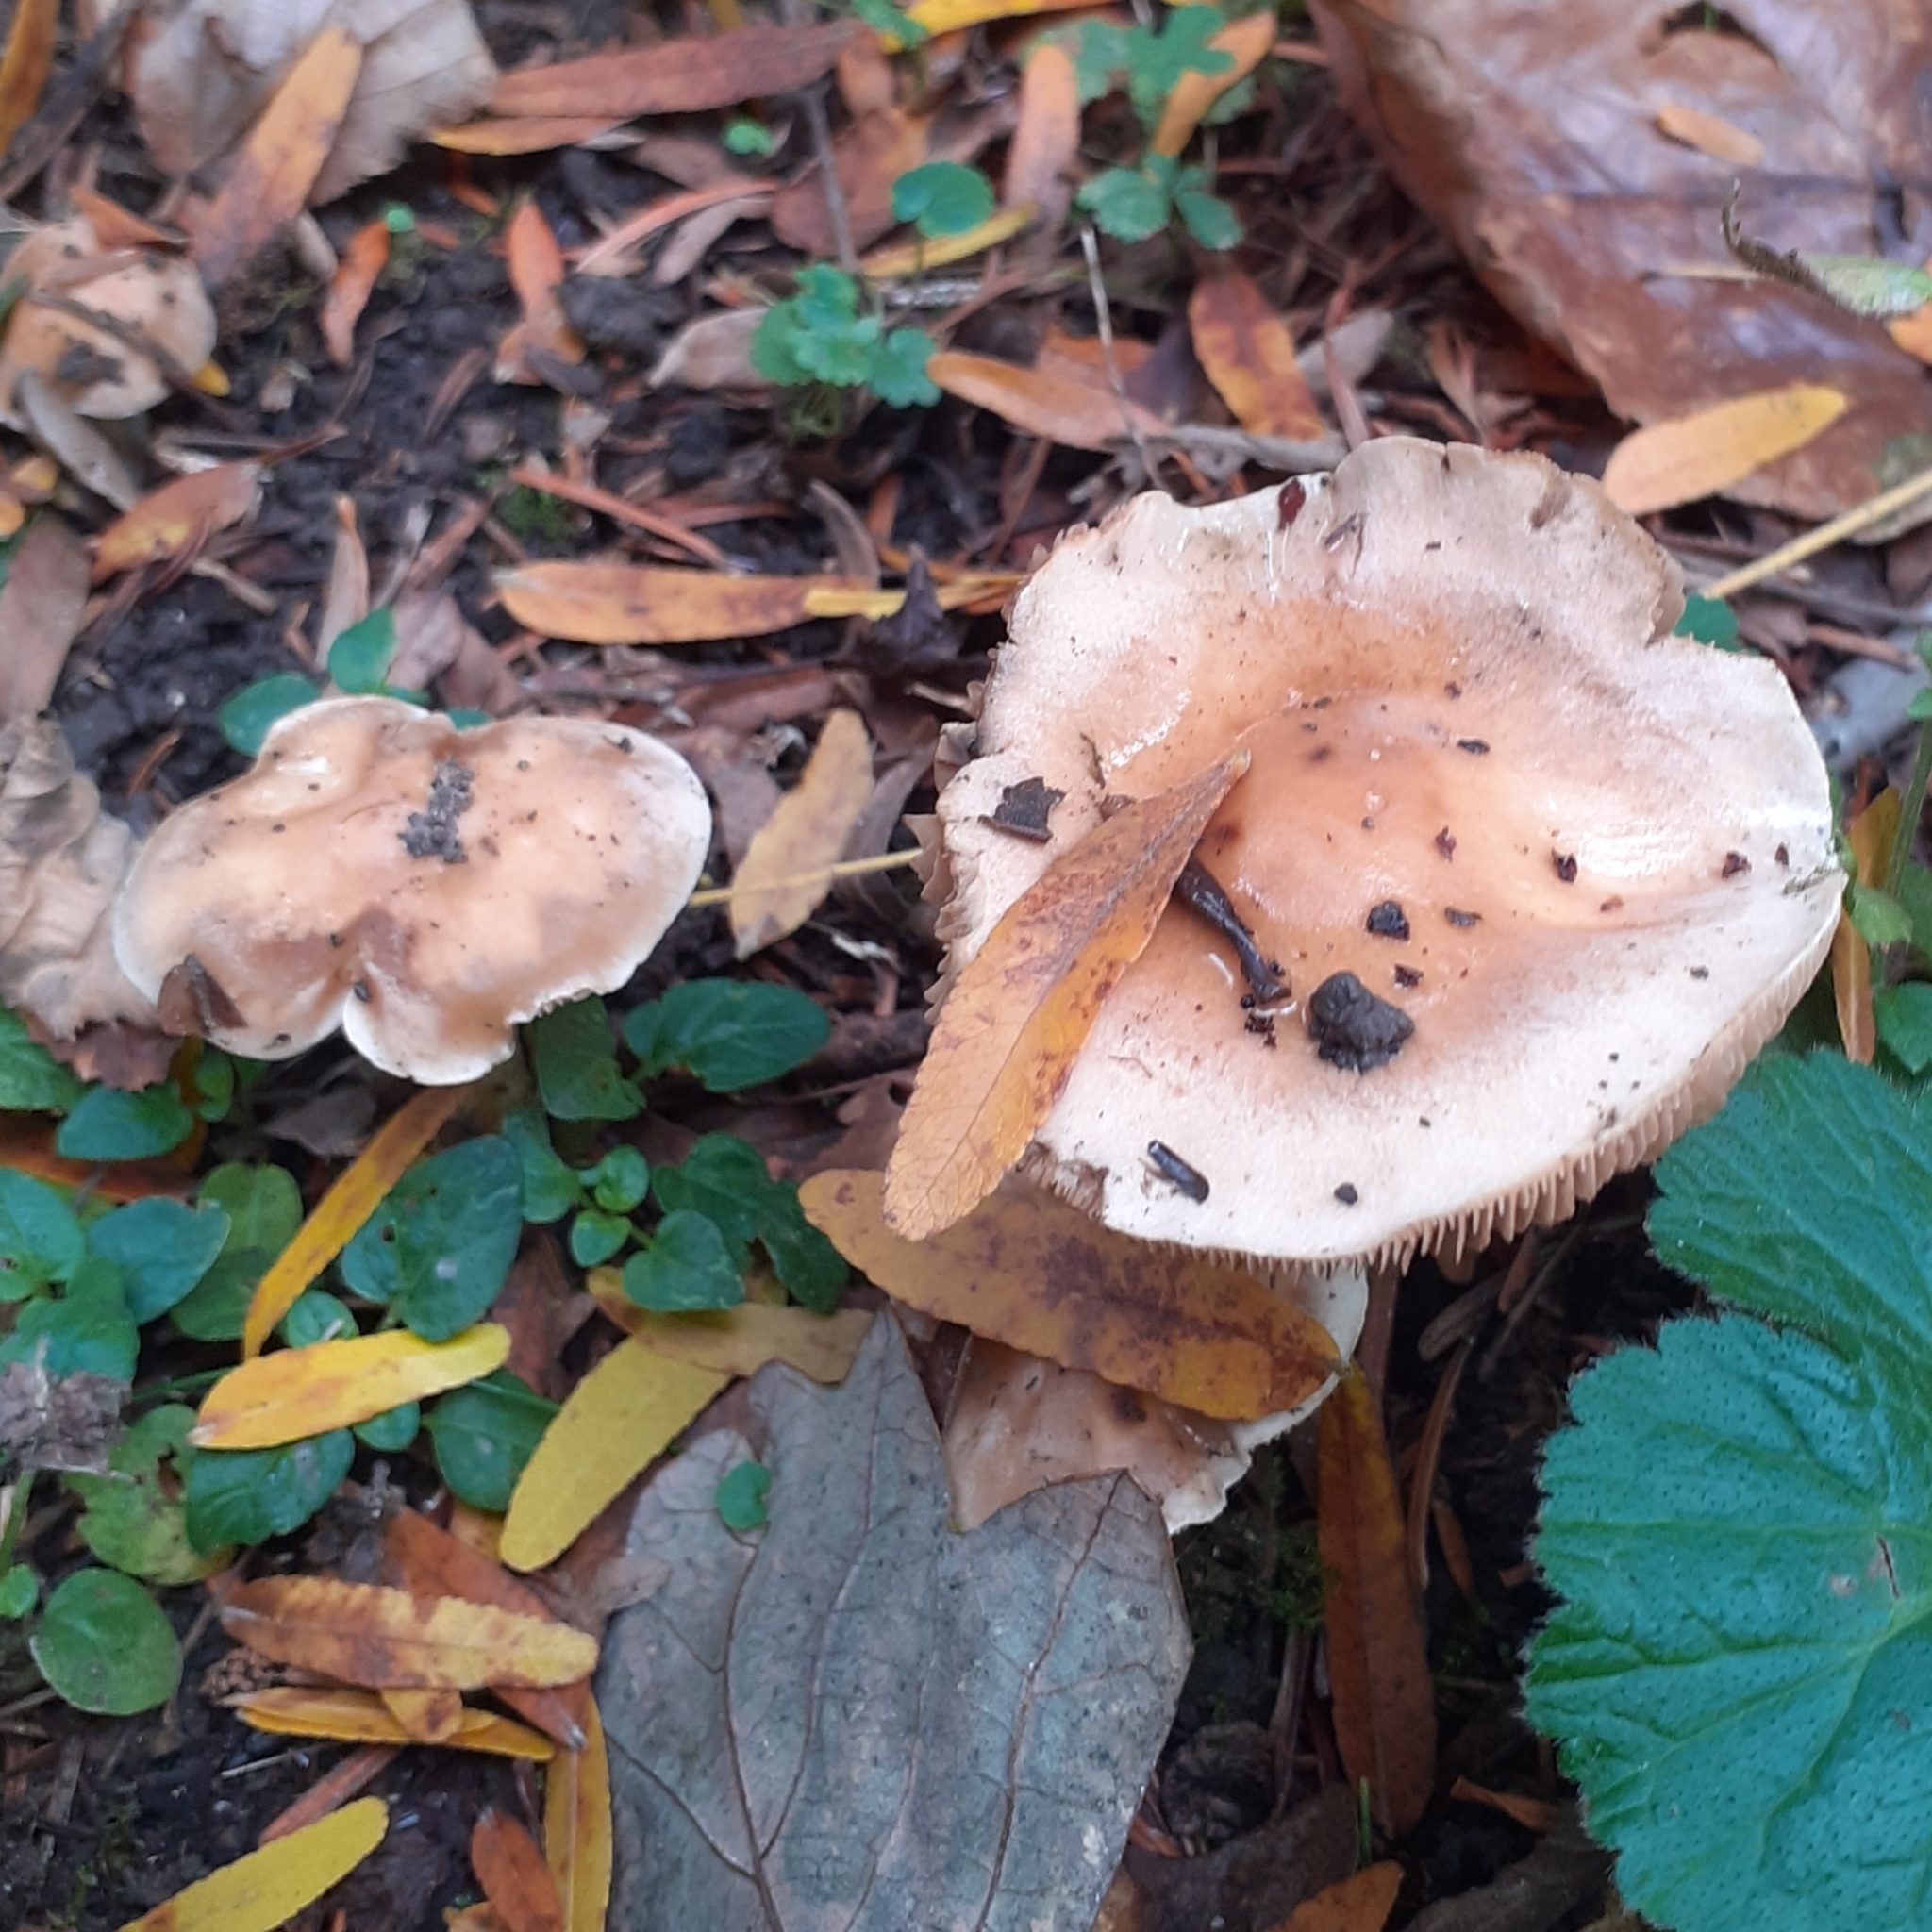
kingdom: Fungi
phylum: Basidiomycota
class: Agaricomycetes
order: Agaricales
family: Hymenogastraceae
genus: Hebeloma
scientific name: Hebeloma
